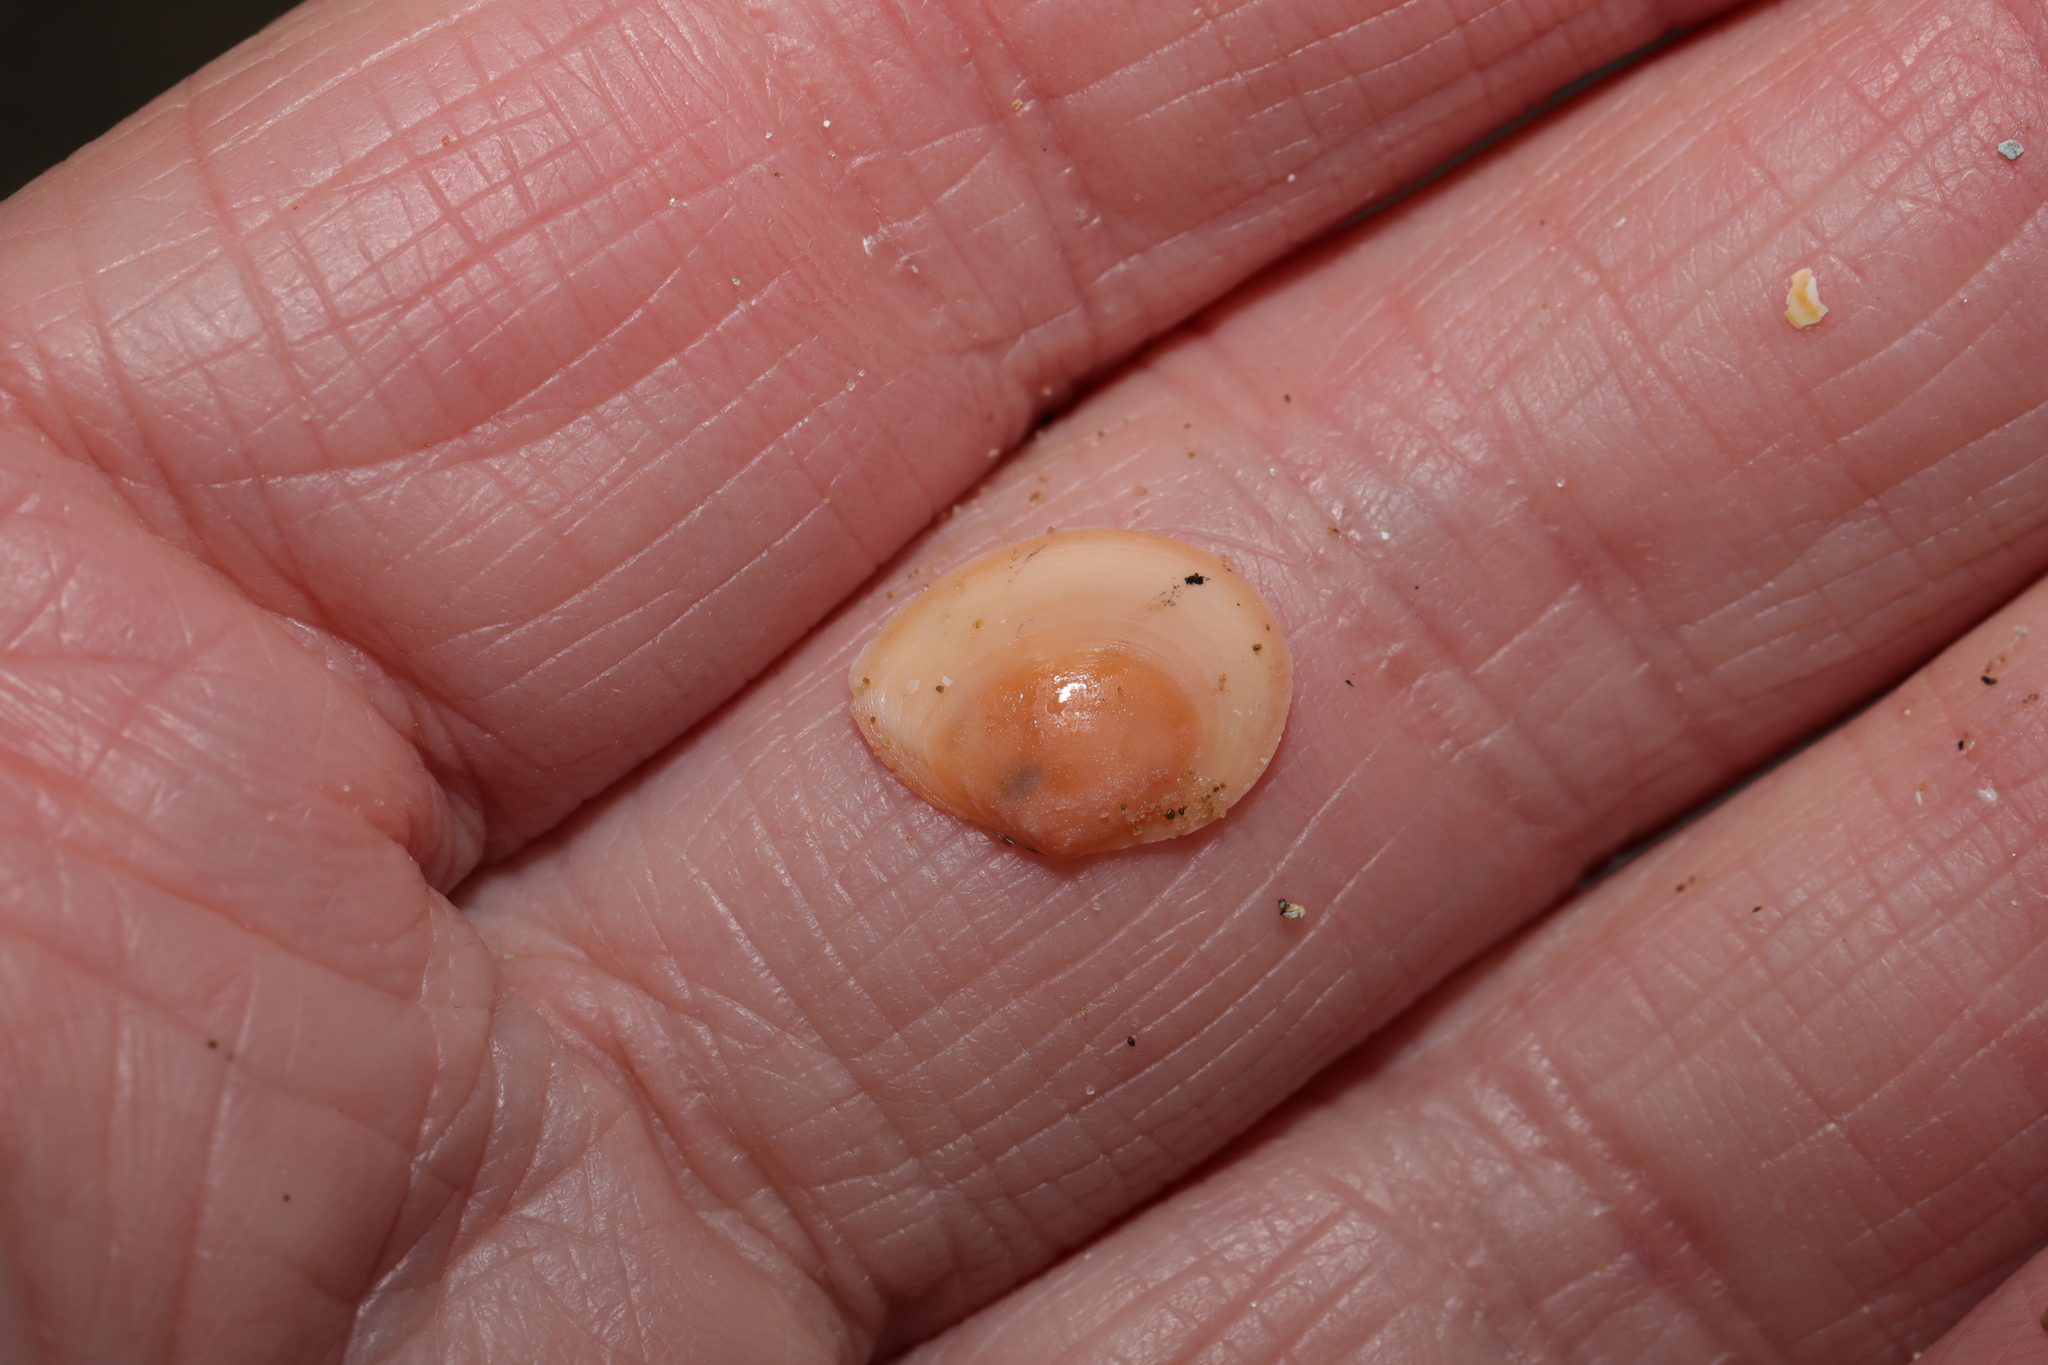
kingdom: Animalia
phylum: Mollusca
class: Bivalvia
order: Cardiida
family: Tellinidae
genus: Macoma
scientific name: Macoma balthica
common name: Baltic tellin
